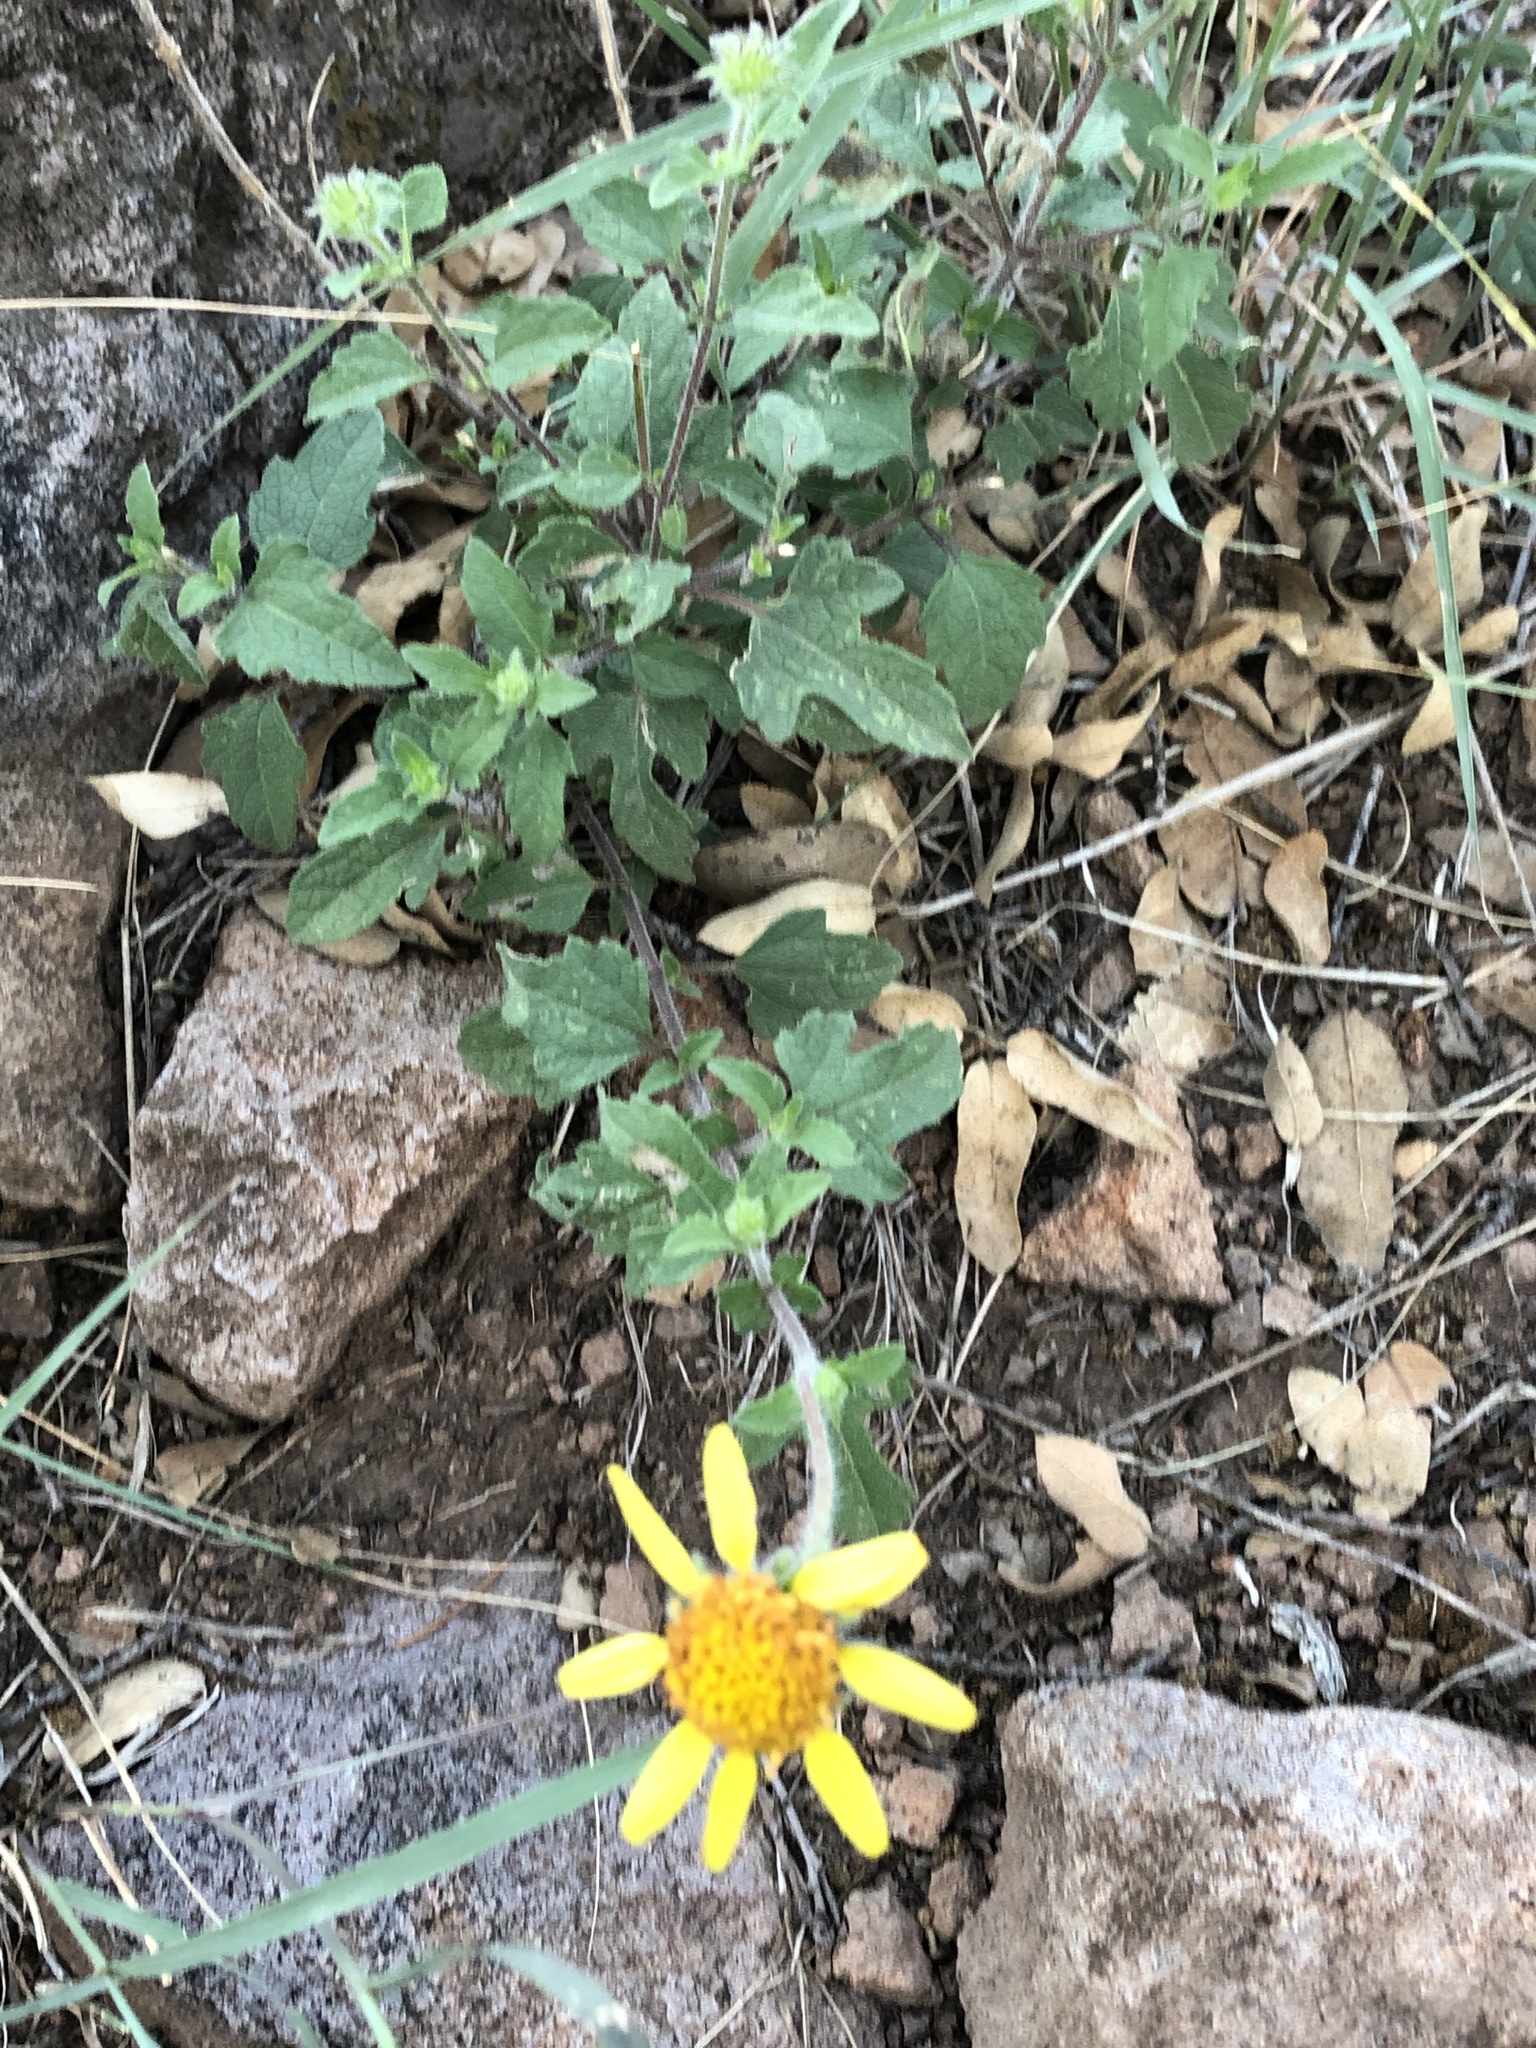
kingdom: Plantae
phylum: Tracheophyta
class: Magnoliopsida
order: Asterales
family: Asteraceae
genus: Simsia
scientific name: Simsia calva
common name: Awnless bush-sunflower
